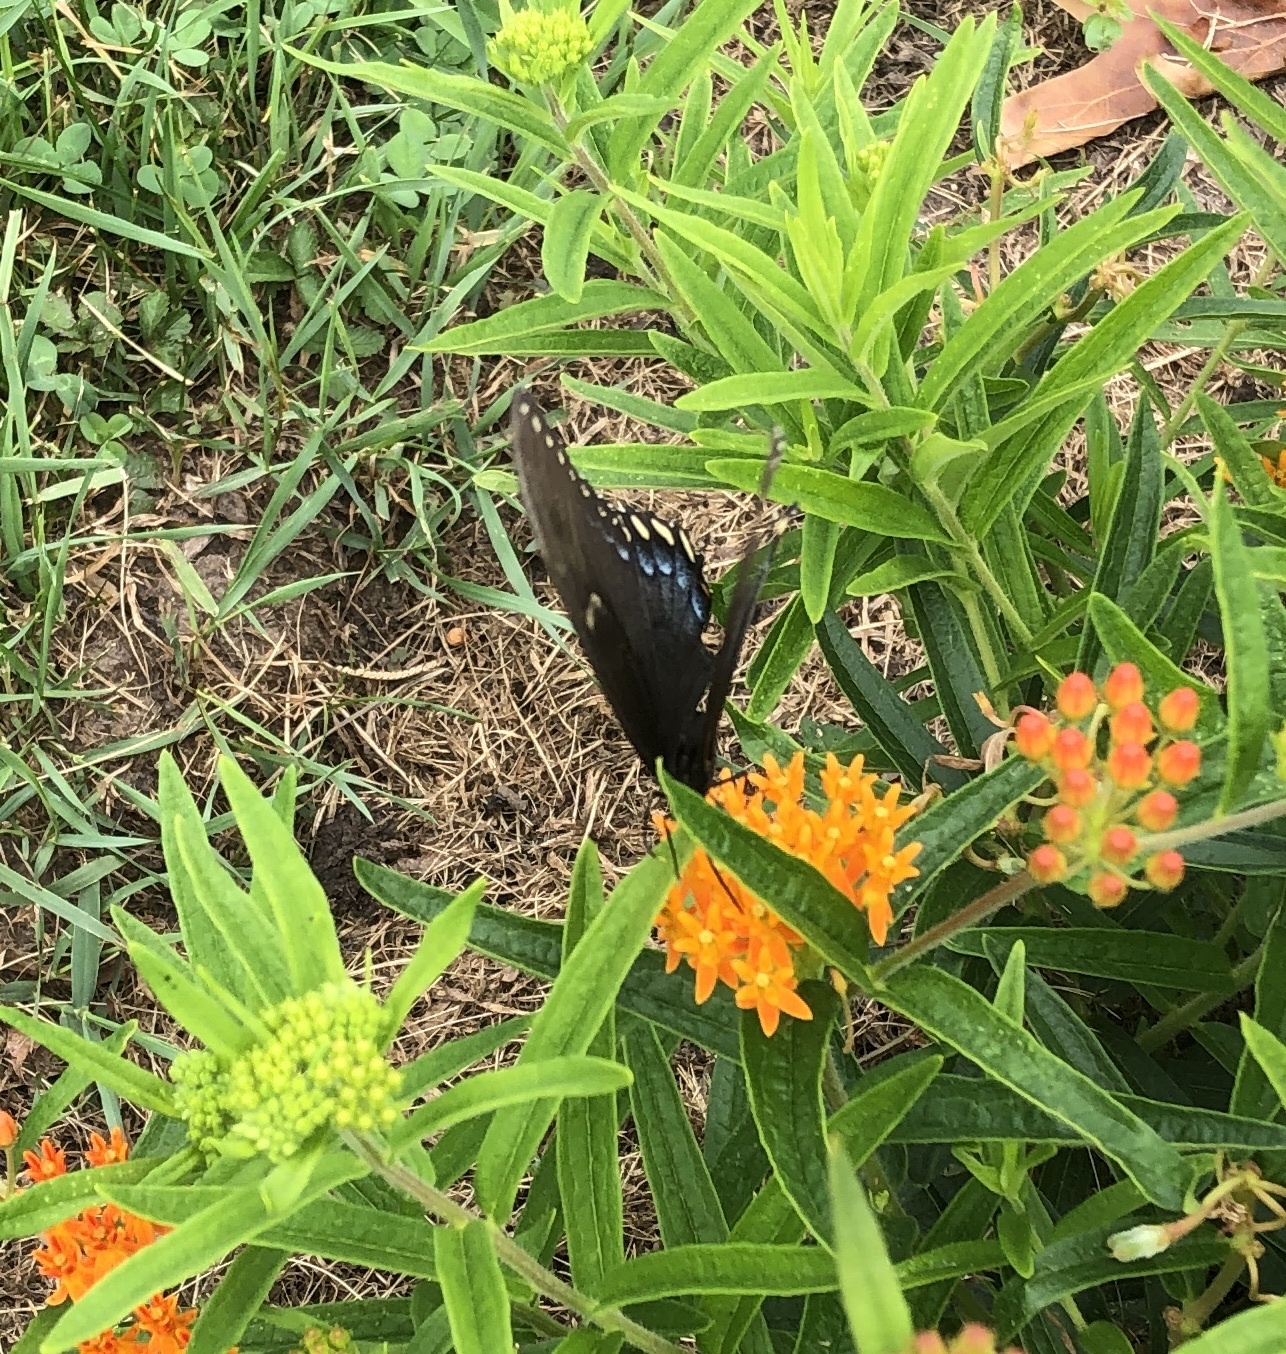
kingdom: Animalia
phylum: Arthropoda
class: Insecta
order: Lepidoptera
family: Papilionidae
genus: Papilio
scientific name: Papilio glaucus
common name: Tiger swallowtail
